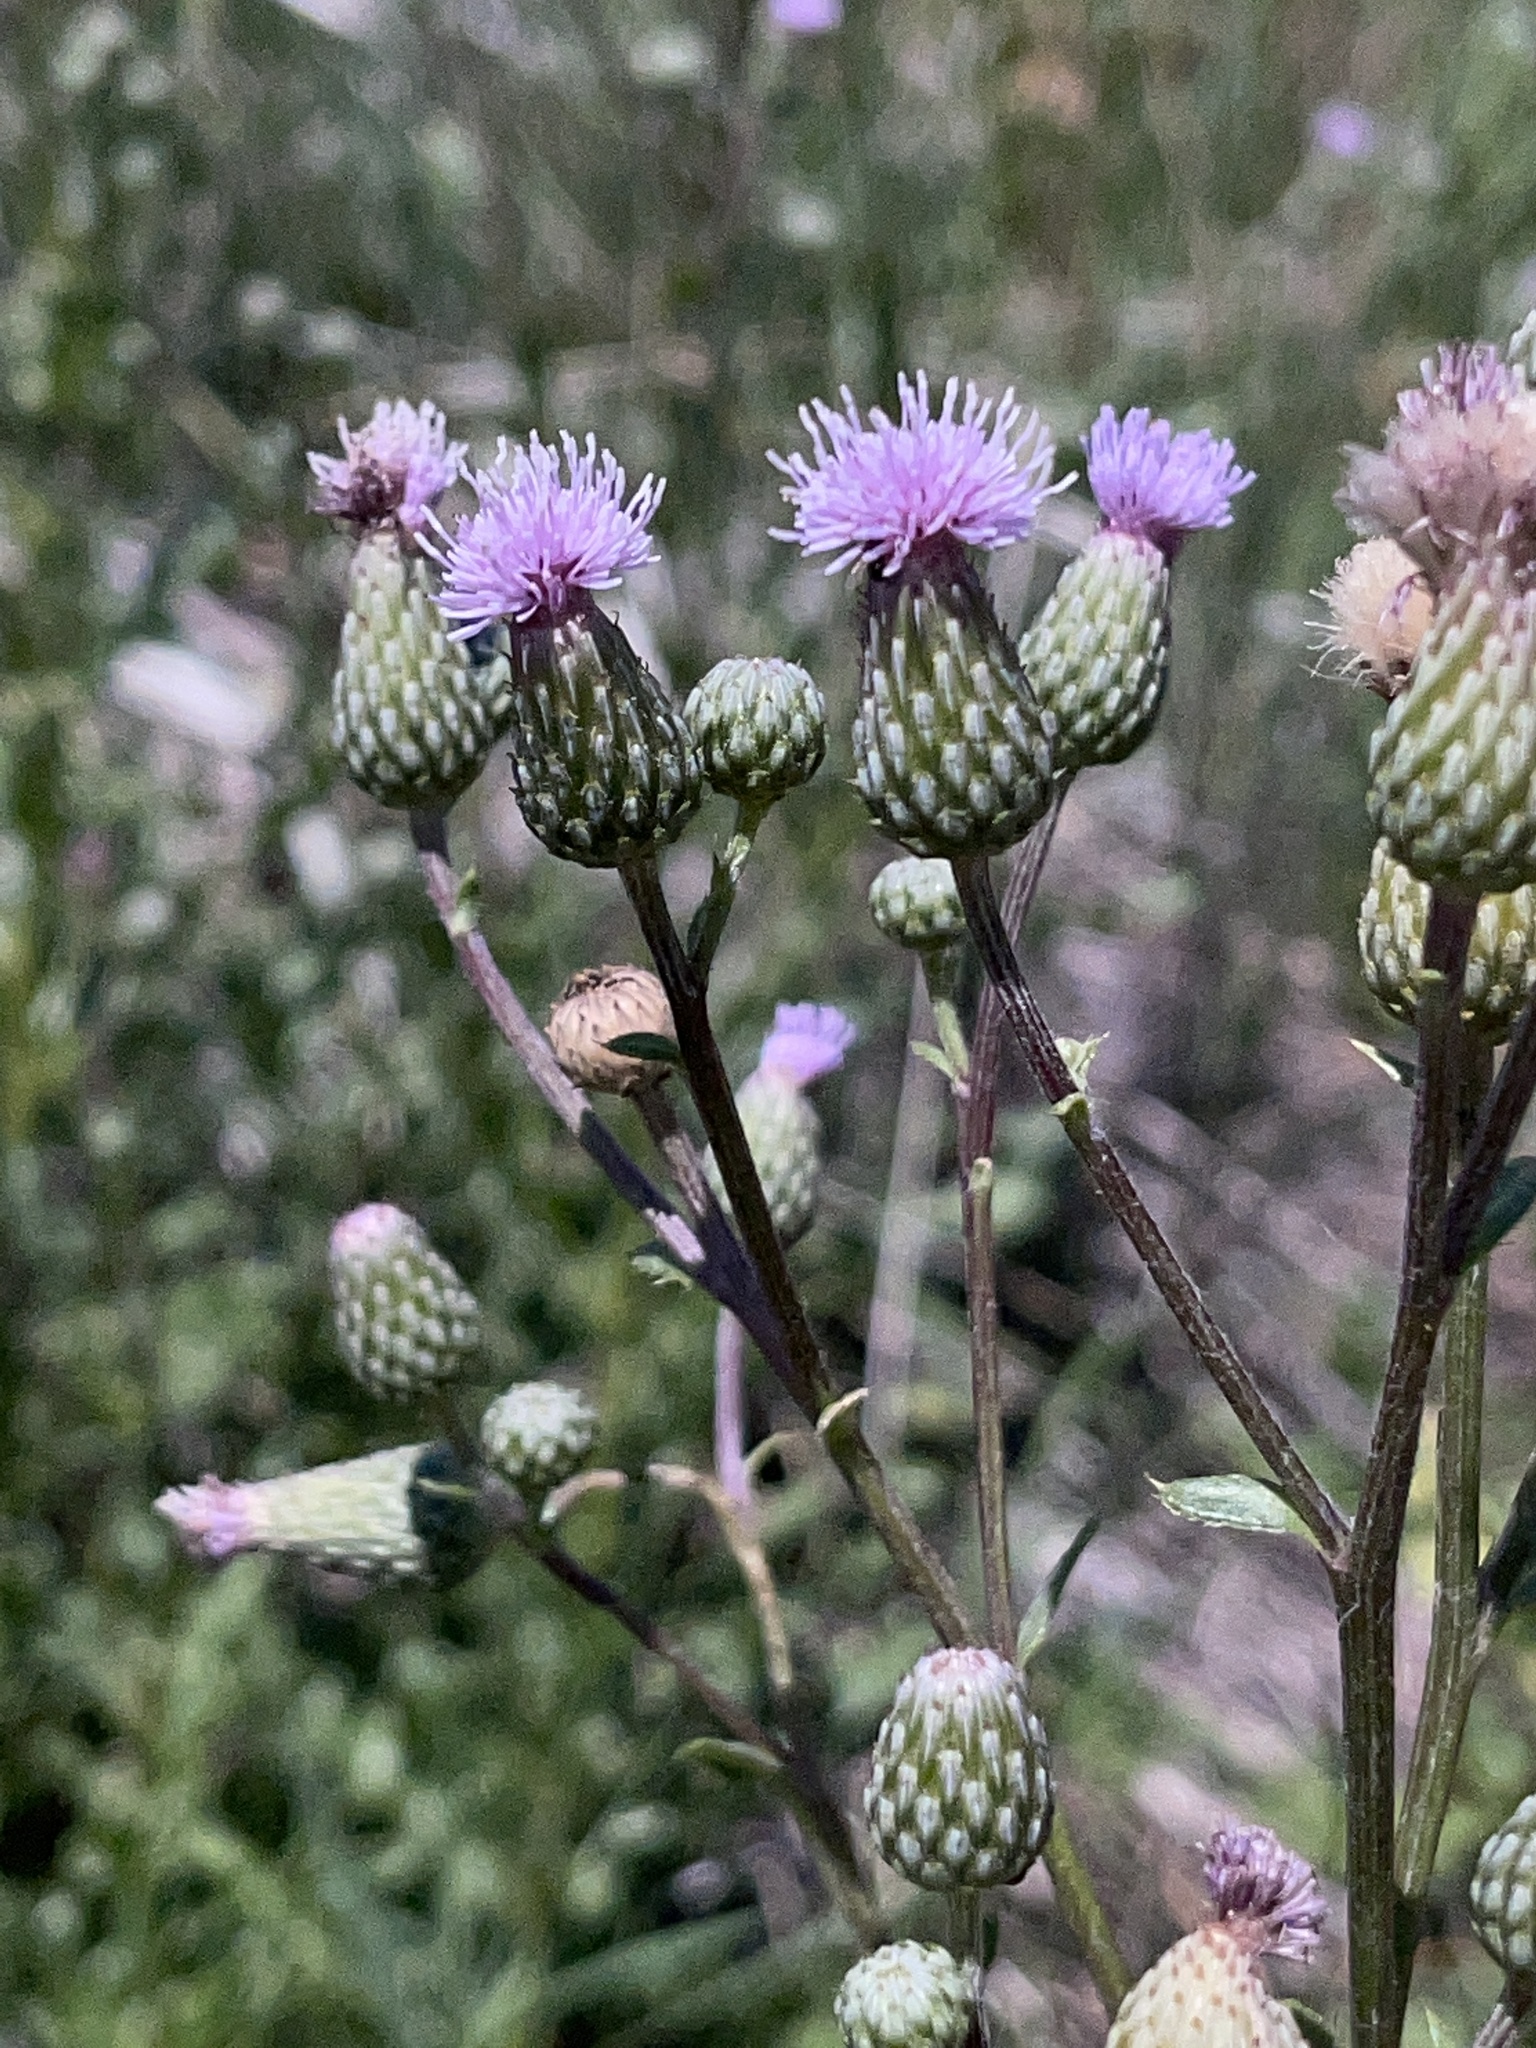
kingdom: Plantae
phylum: Tracheophyta
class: Magnoliopsida
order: Asterales
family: Asteraceae
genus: Cirsium
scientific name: Cirsium arvense
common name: Creeping thistle
